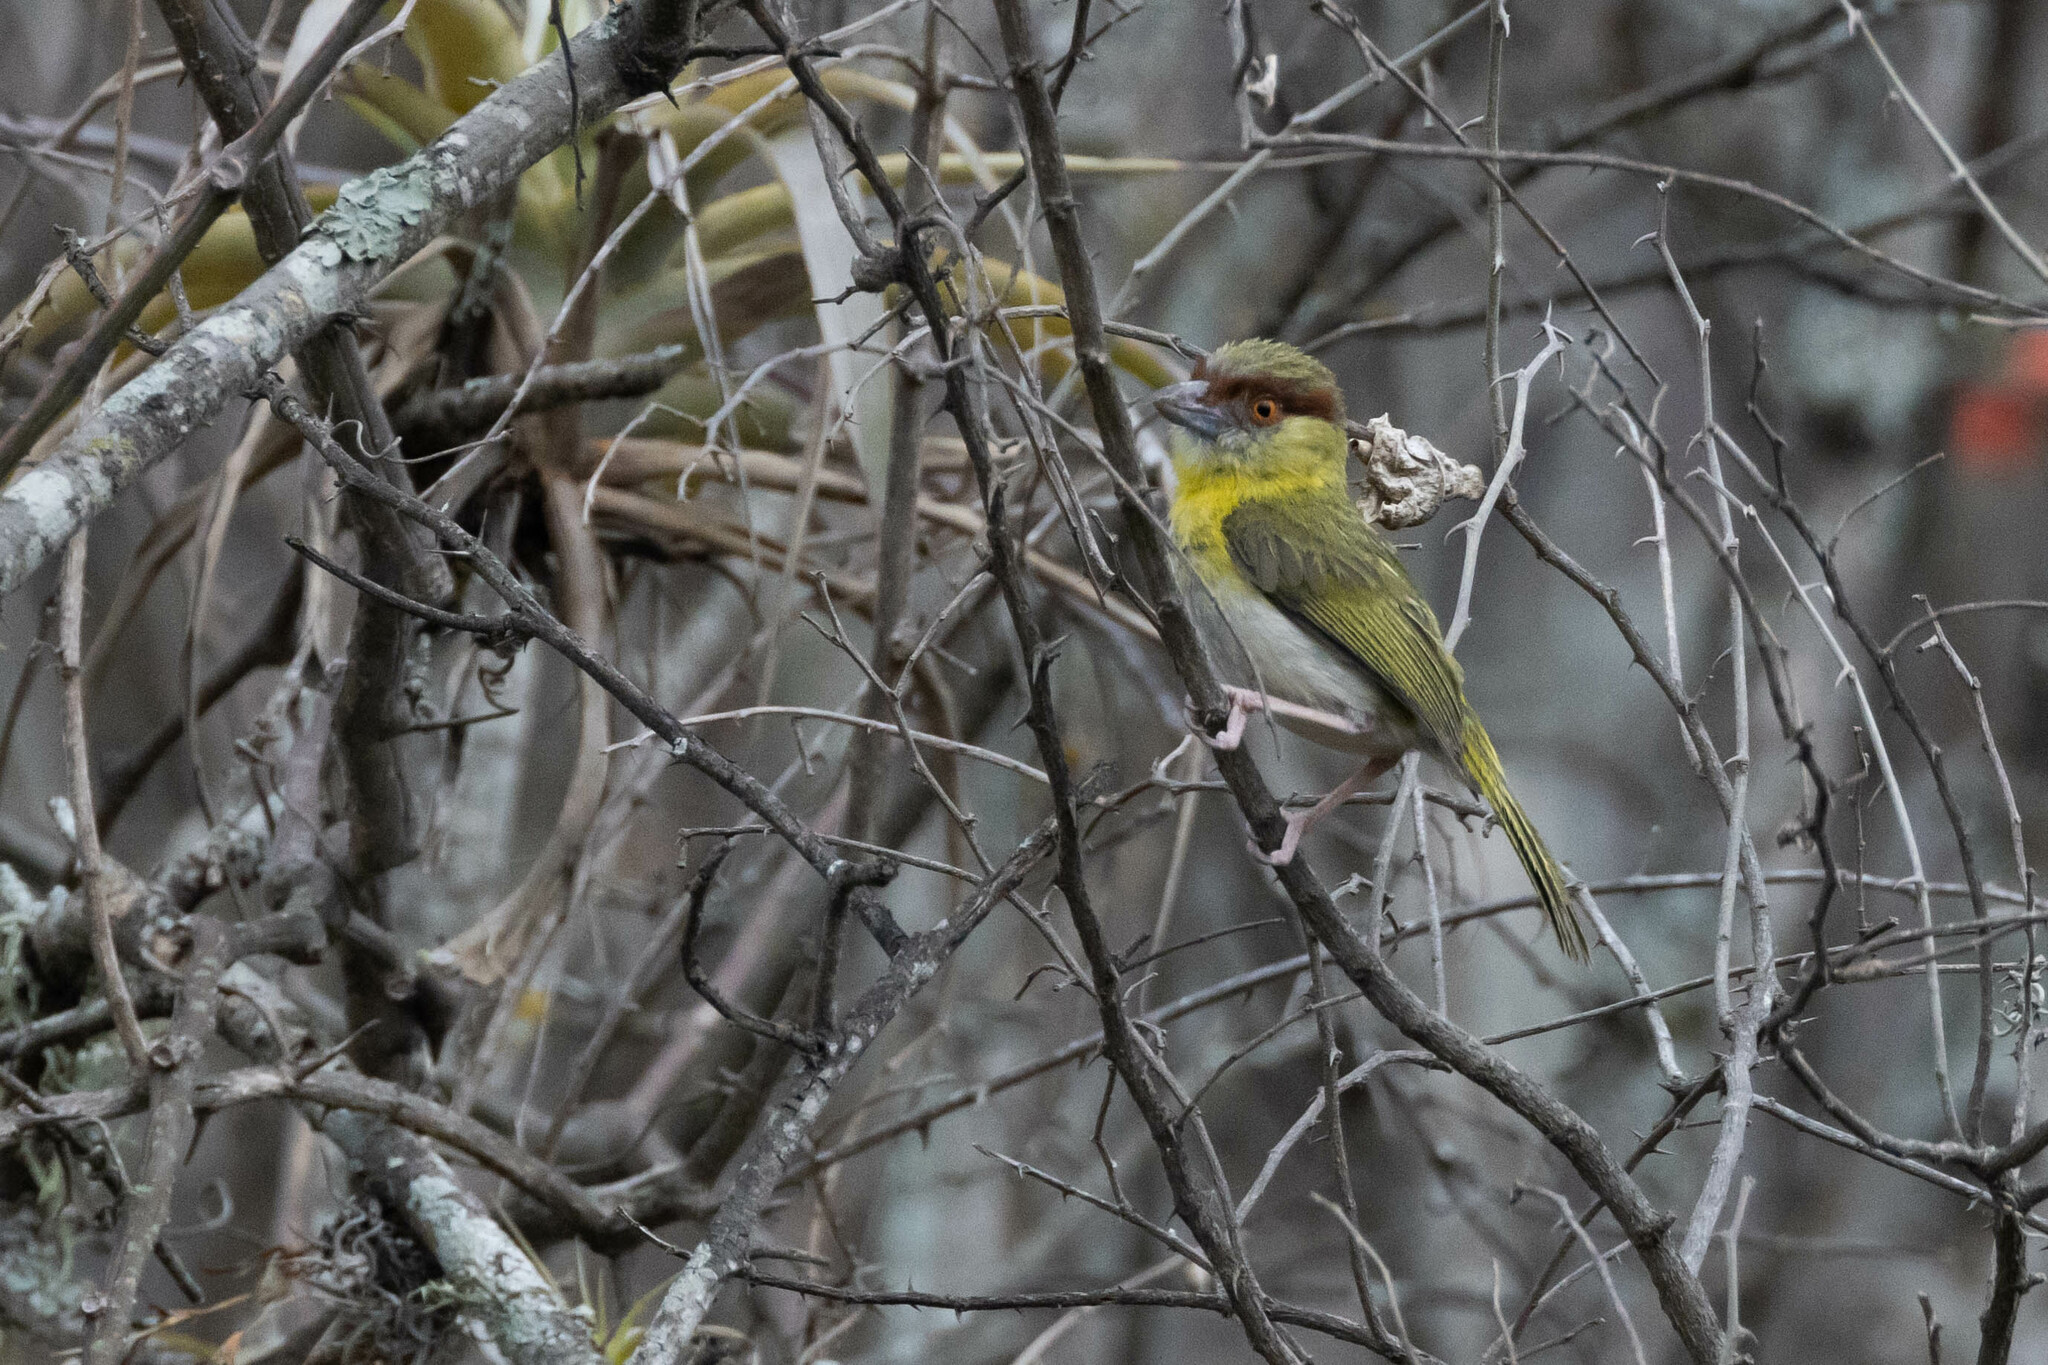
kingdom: Animalia
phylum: Chordata
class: Aves
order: Passeriformes
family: Vireonidae
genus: Cyclarhis
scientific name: Cyclarhis gujanensis
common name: Rufous-browed peppershrike
